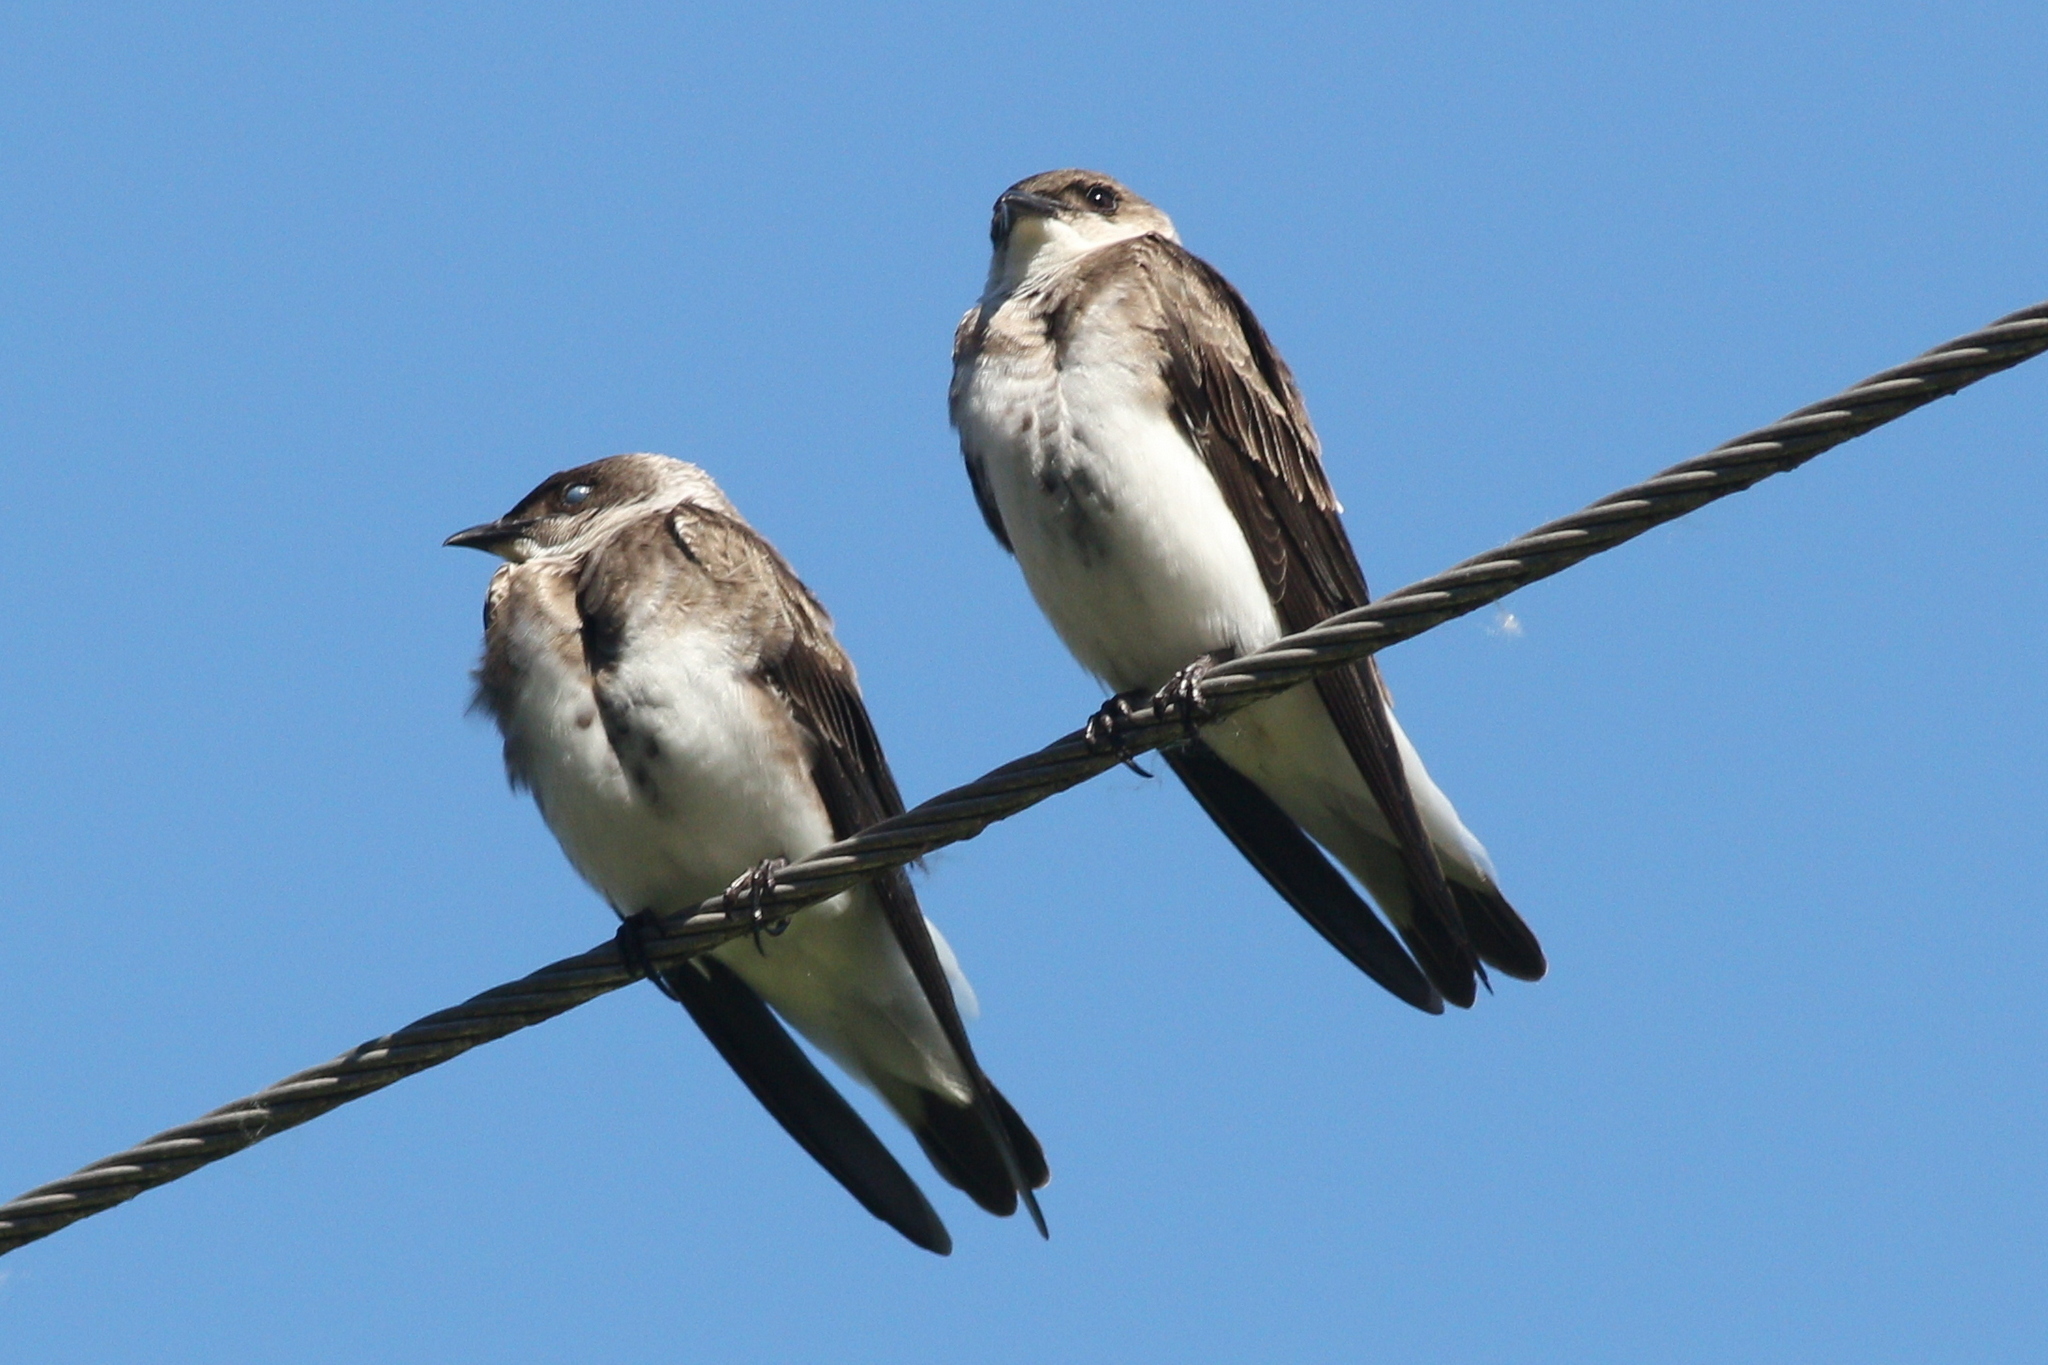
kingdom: Animalia
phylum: Chordata
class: Aves
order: Passeriformes
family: Hirundinidae
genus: Progne
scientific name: Progne tapera
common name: Brown-chested martin
